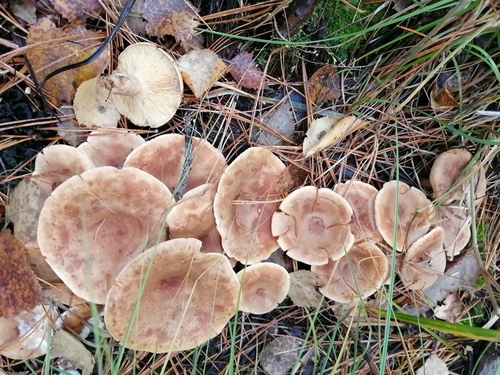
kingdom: Fungi
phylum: Basidiomycota
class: Agaricomycetes
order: Russulales
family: Russulaceae
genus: Lactarius
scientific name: Lactarius helvus
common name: Fenugreek milkcap
